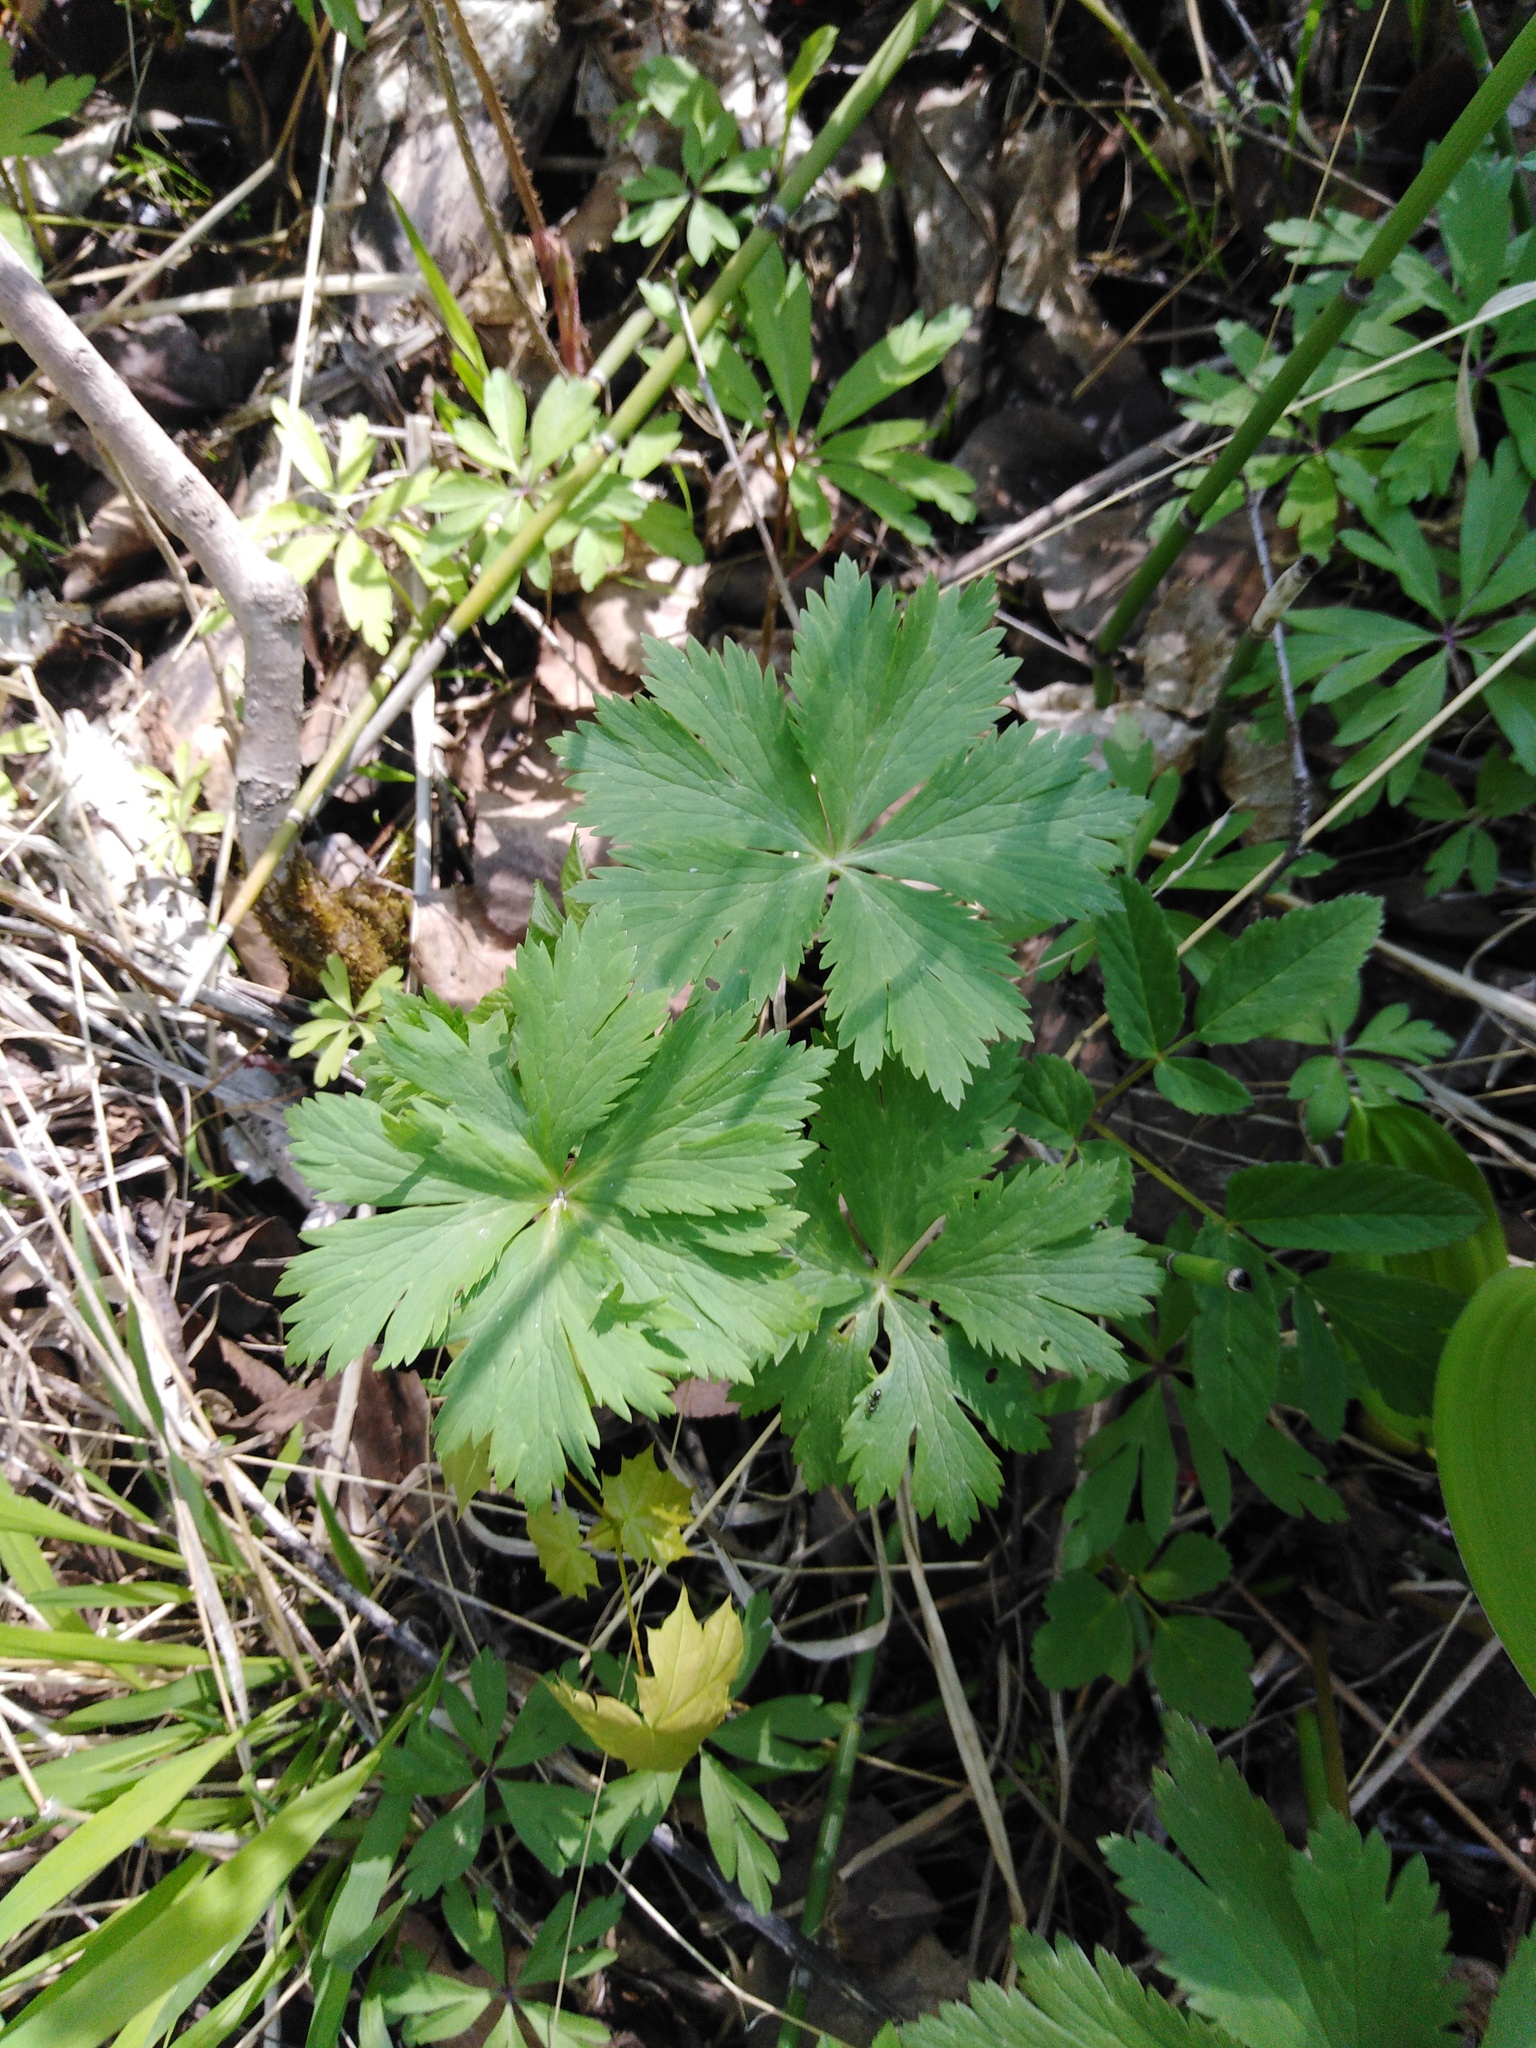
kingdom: Plantae
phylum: Tracheophyta
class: Magnoliopsida
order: Ranunculales
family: Ranunculaceae
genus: Trollius
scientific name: Trollius europaeus
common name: European globeflower
